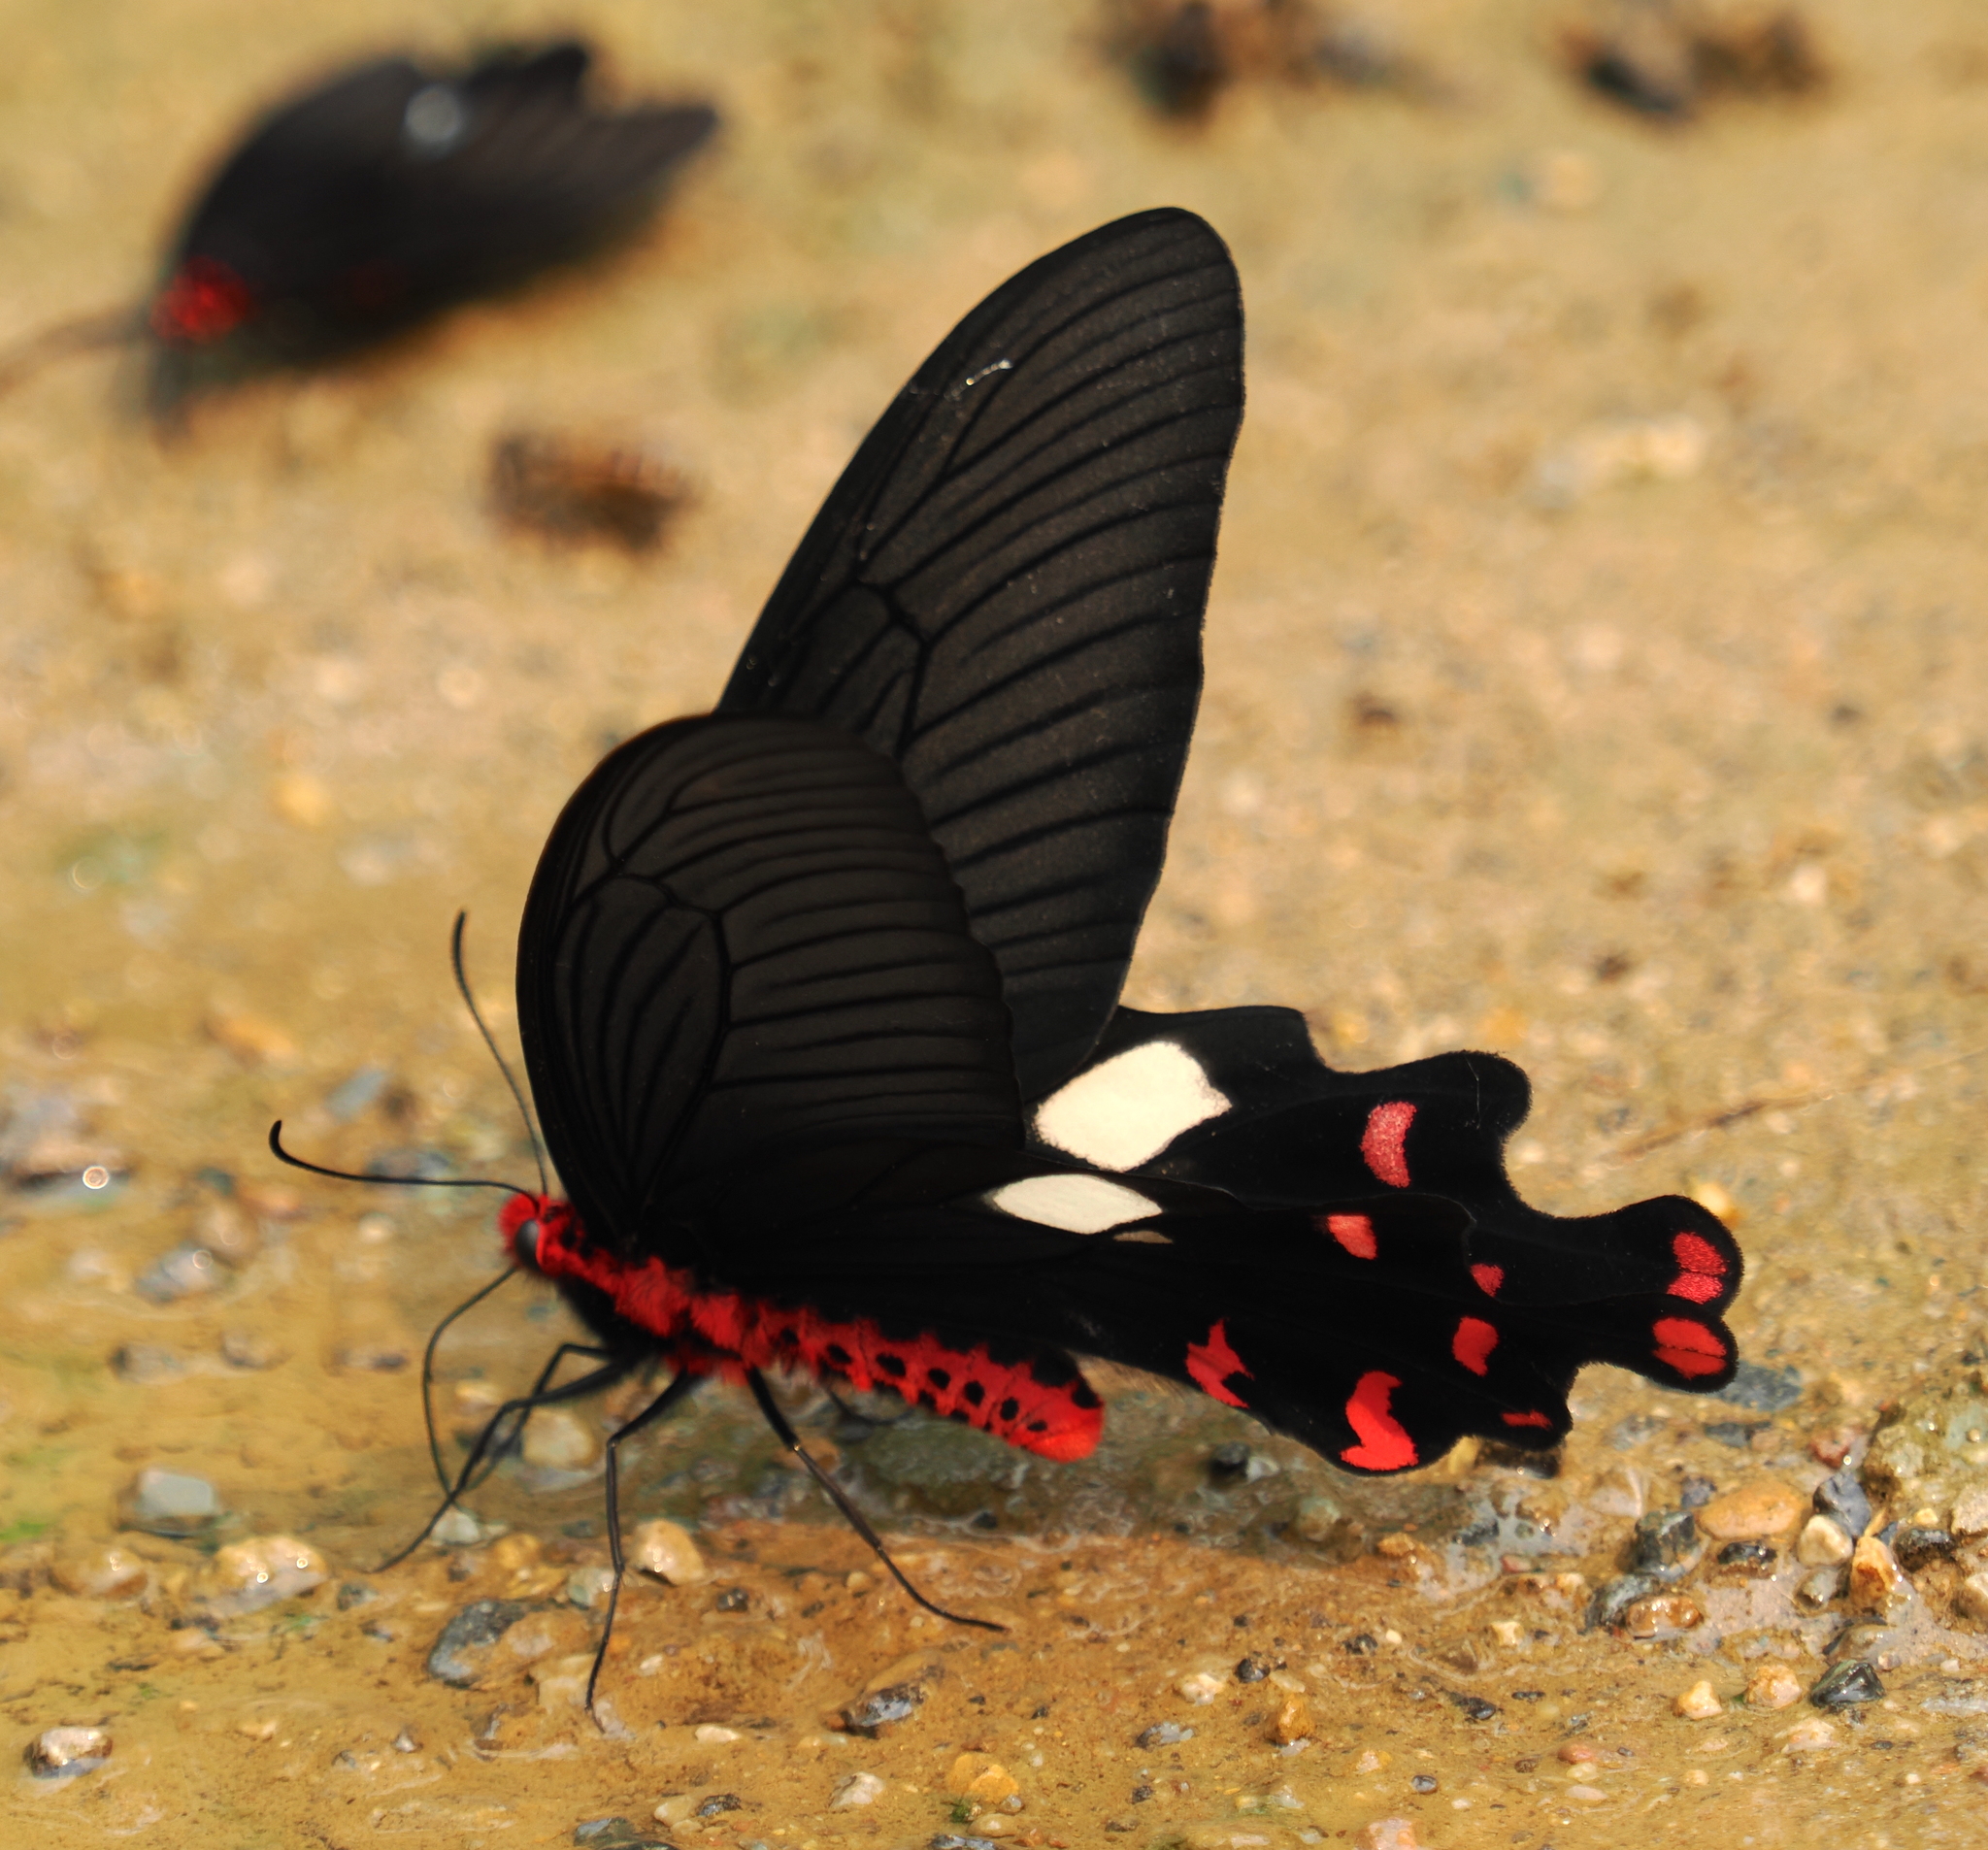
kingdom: Animalia
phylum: Arthropoda
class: Insecta
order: Lepidoptera
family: Papilionidae
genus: Byasa
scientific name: Byasa polyeuctes
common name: Common windmill
